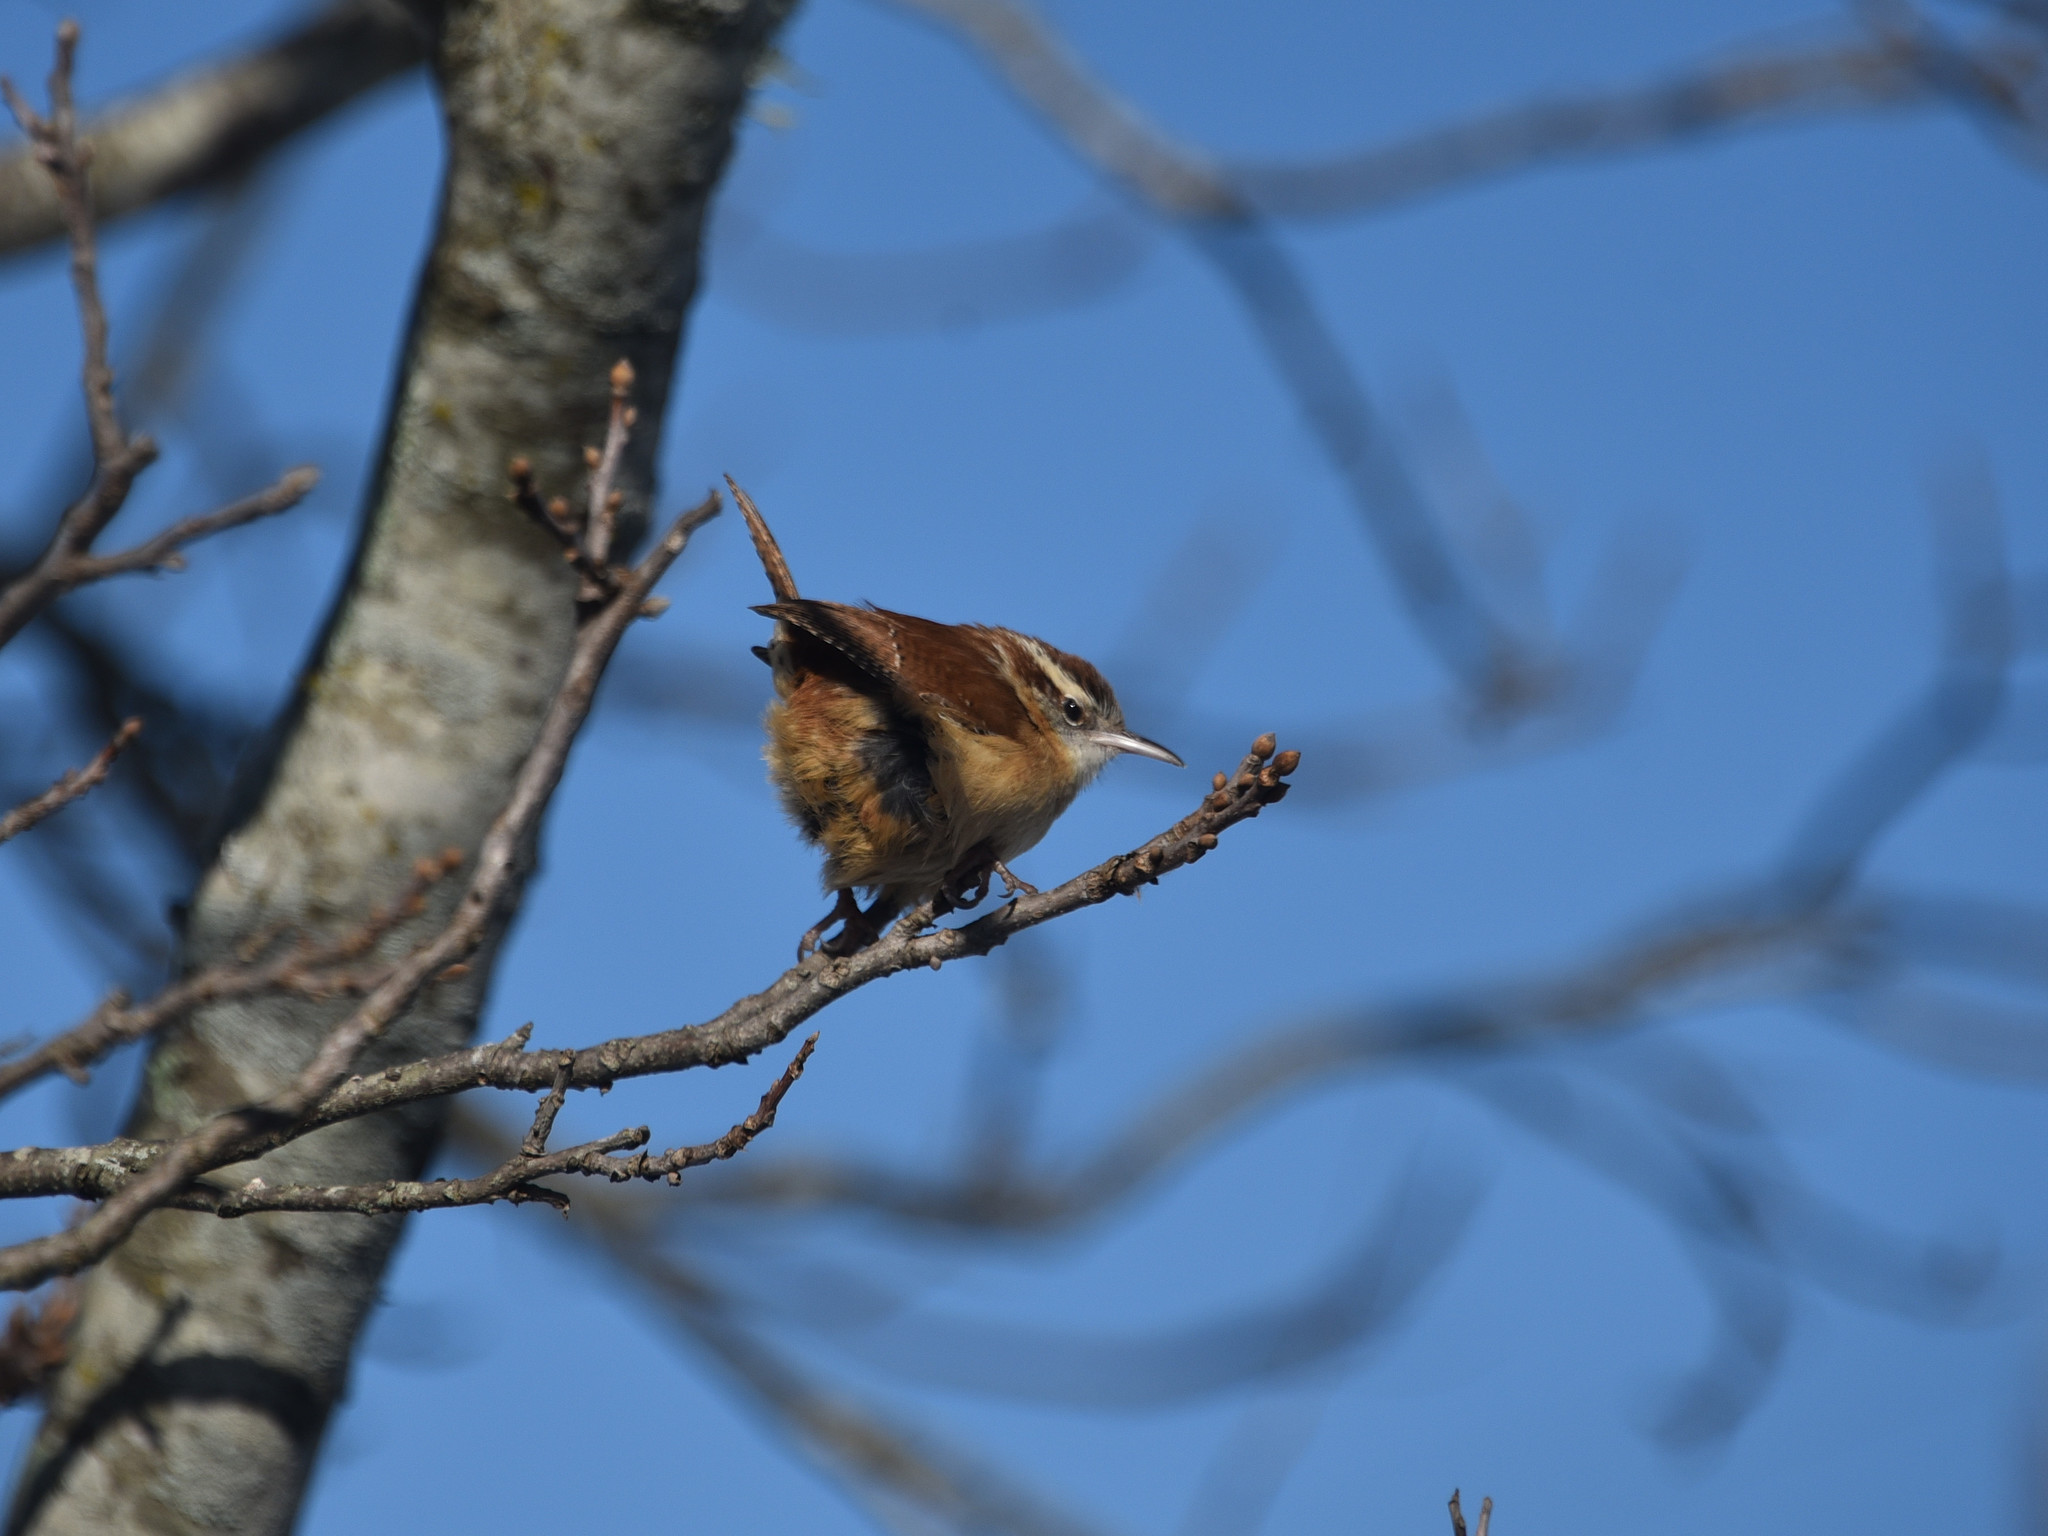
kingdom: Animalia
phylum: Chordata
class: Aves
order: Passeriformes
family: Troglodytidae
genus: Thryothorus
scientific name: Thryothorus ludovicianus
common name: Carolina wren
